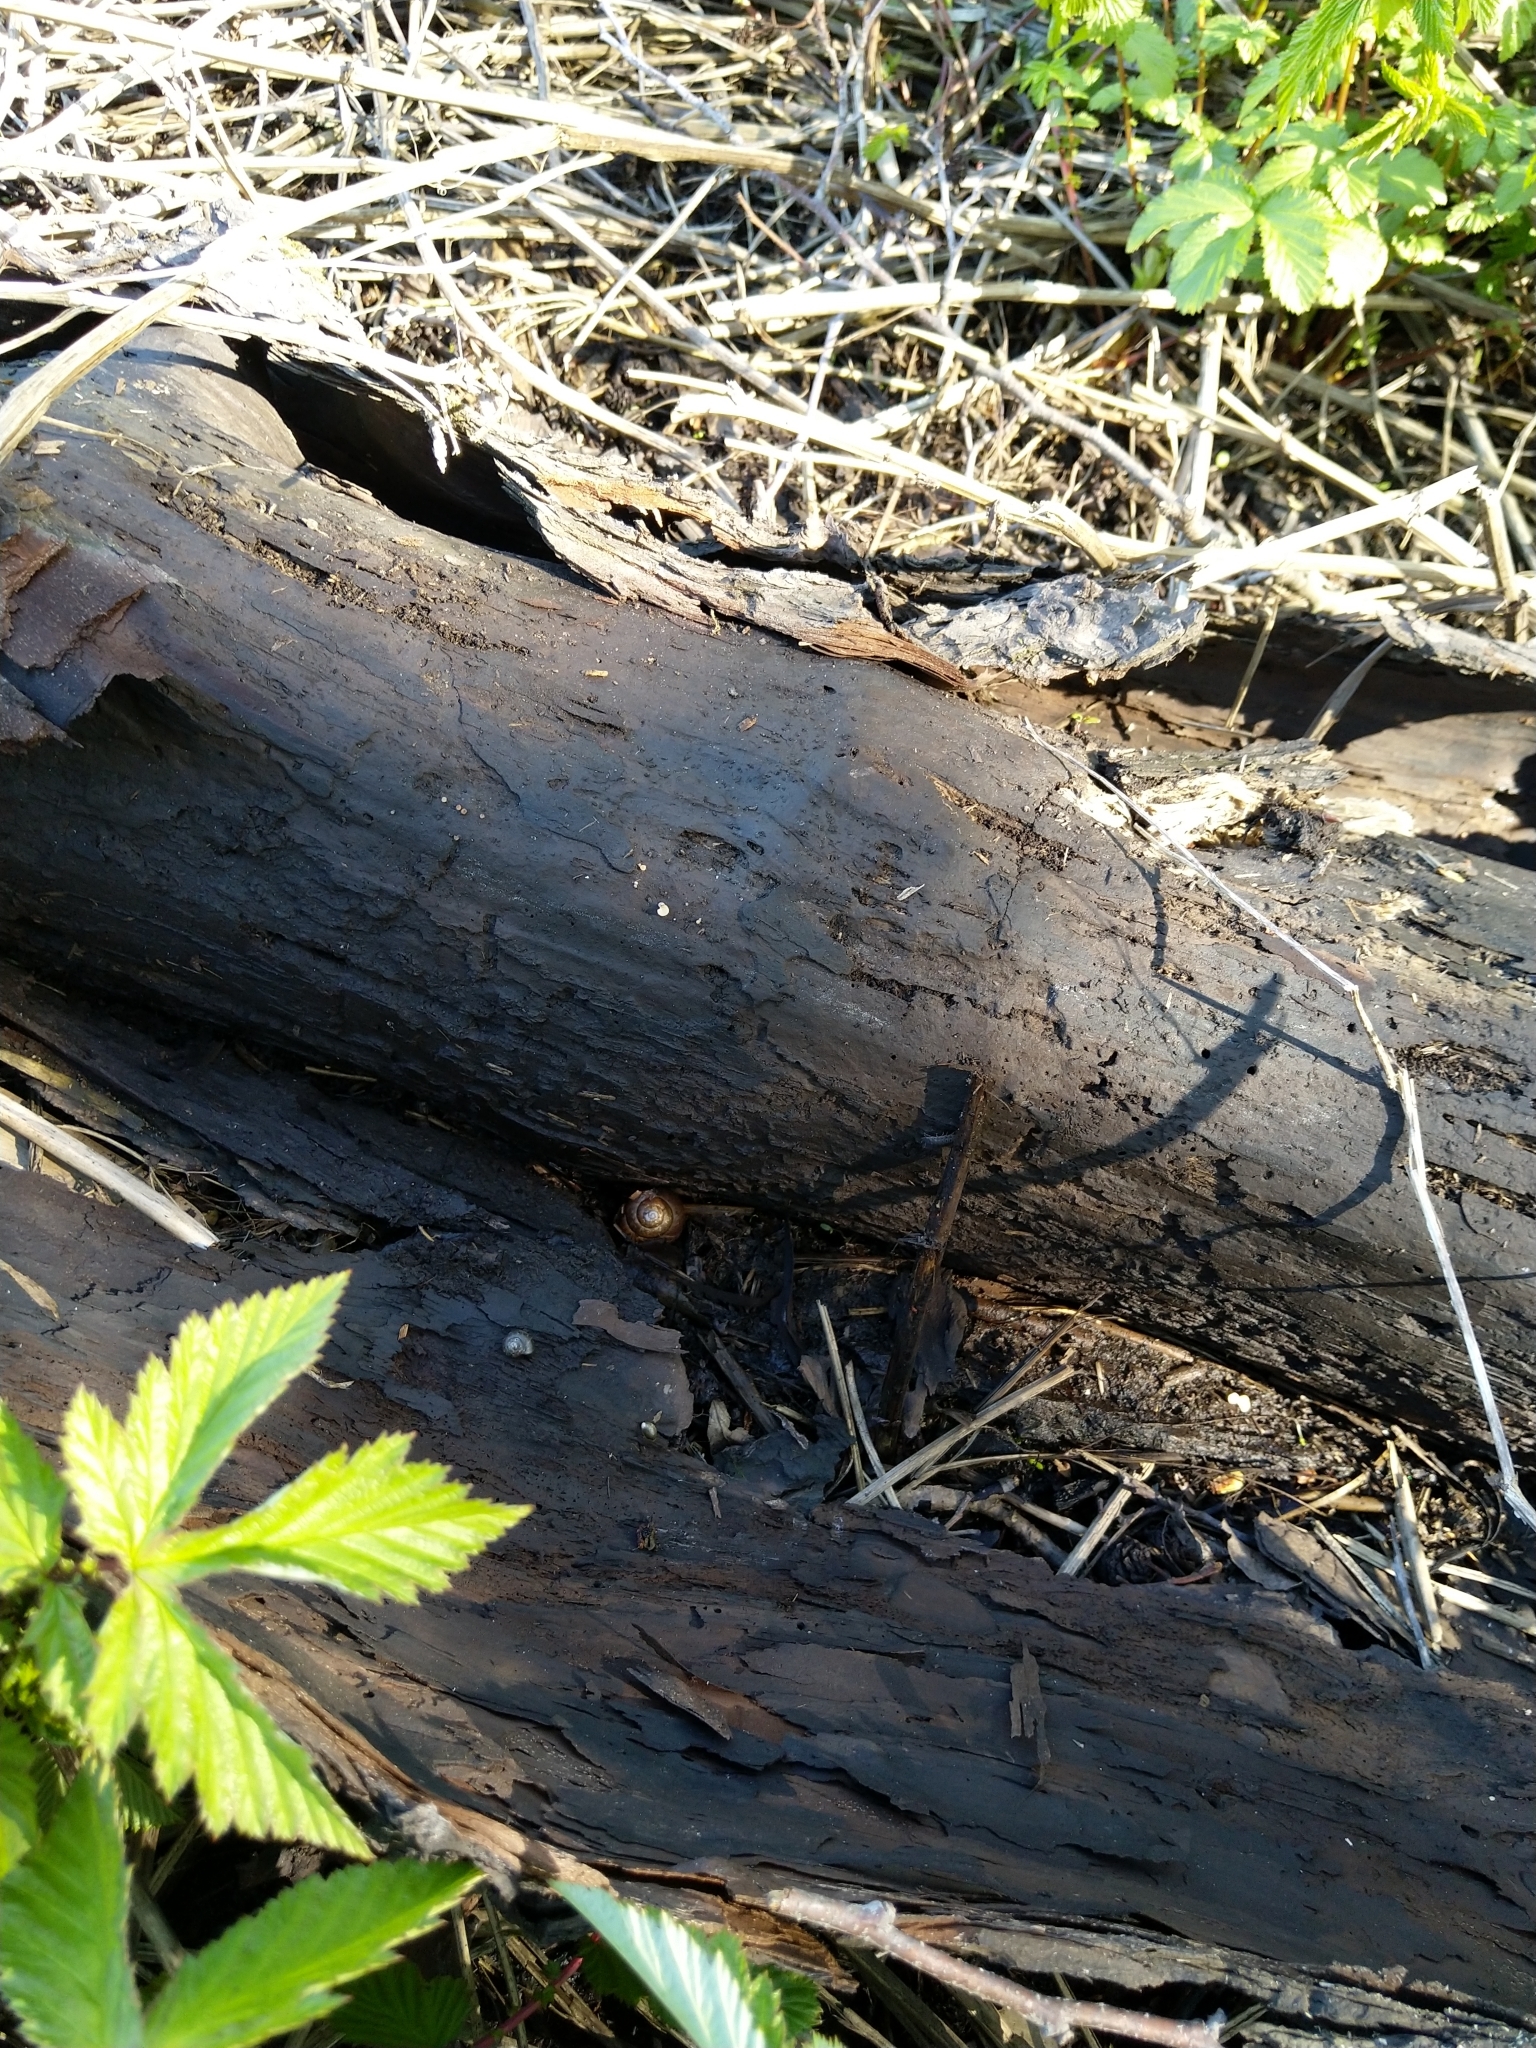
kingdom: Animalia
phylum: Mollusca
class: Gastropoda
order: Stylommatophora
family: Helicidae
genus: Arianta
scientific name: Arianta arbustorum
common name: Copse snail
